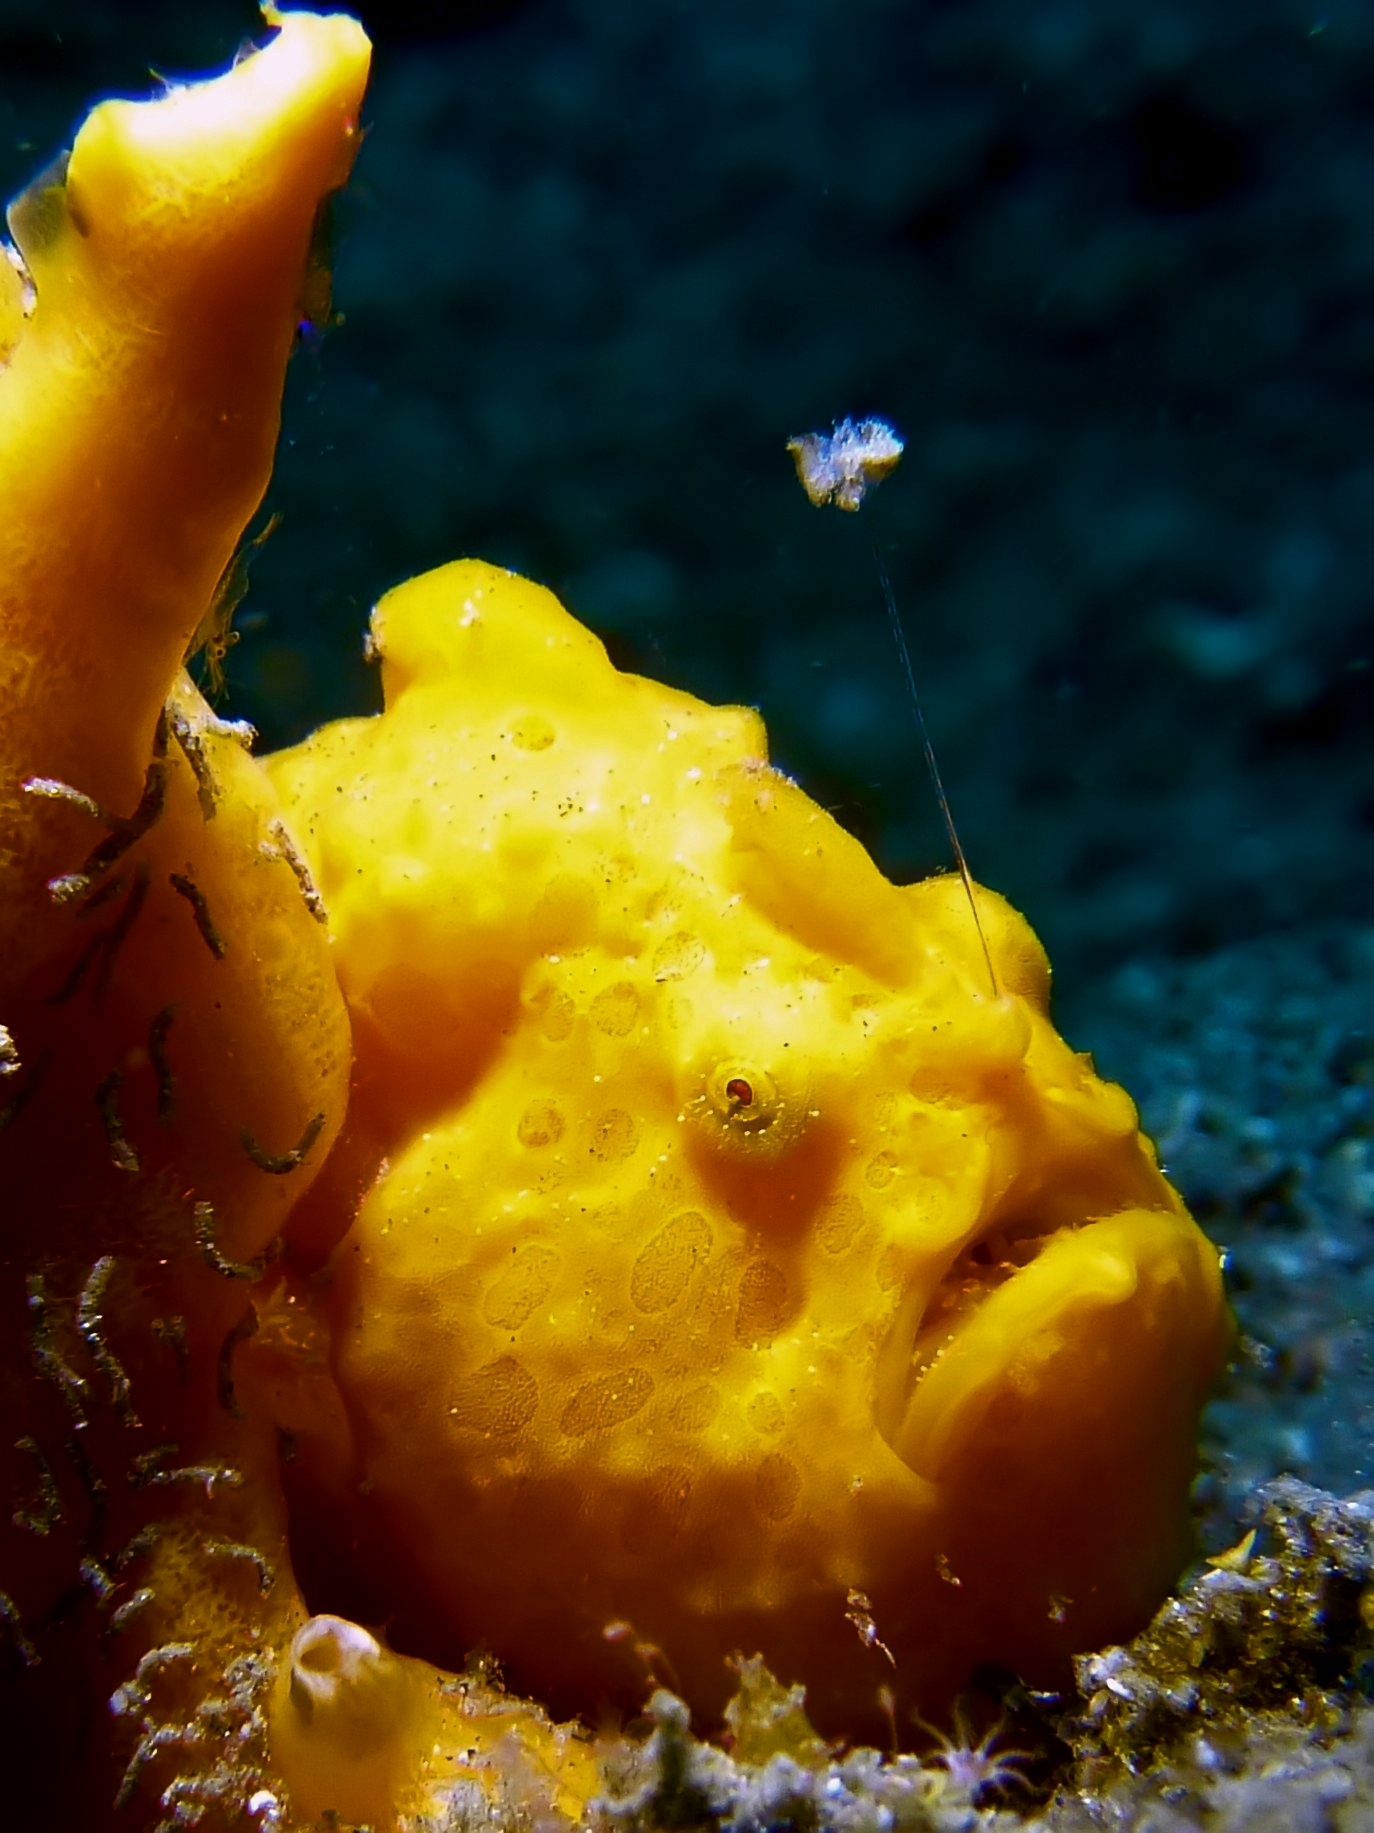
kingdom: Animalia
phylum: Chordata
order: Lophiiformes
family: Antennariidae
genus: Antennarius
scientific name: Antennarius pictus
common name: Painted frogfish
